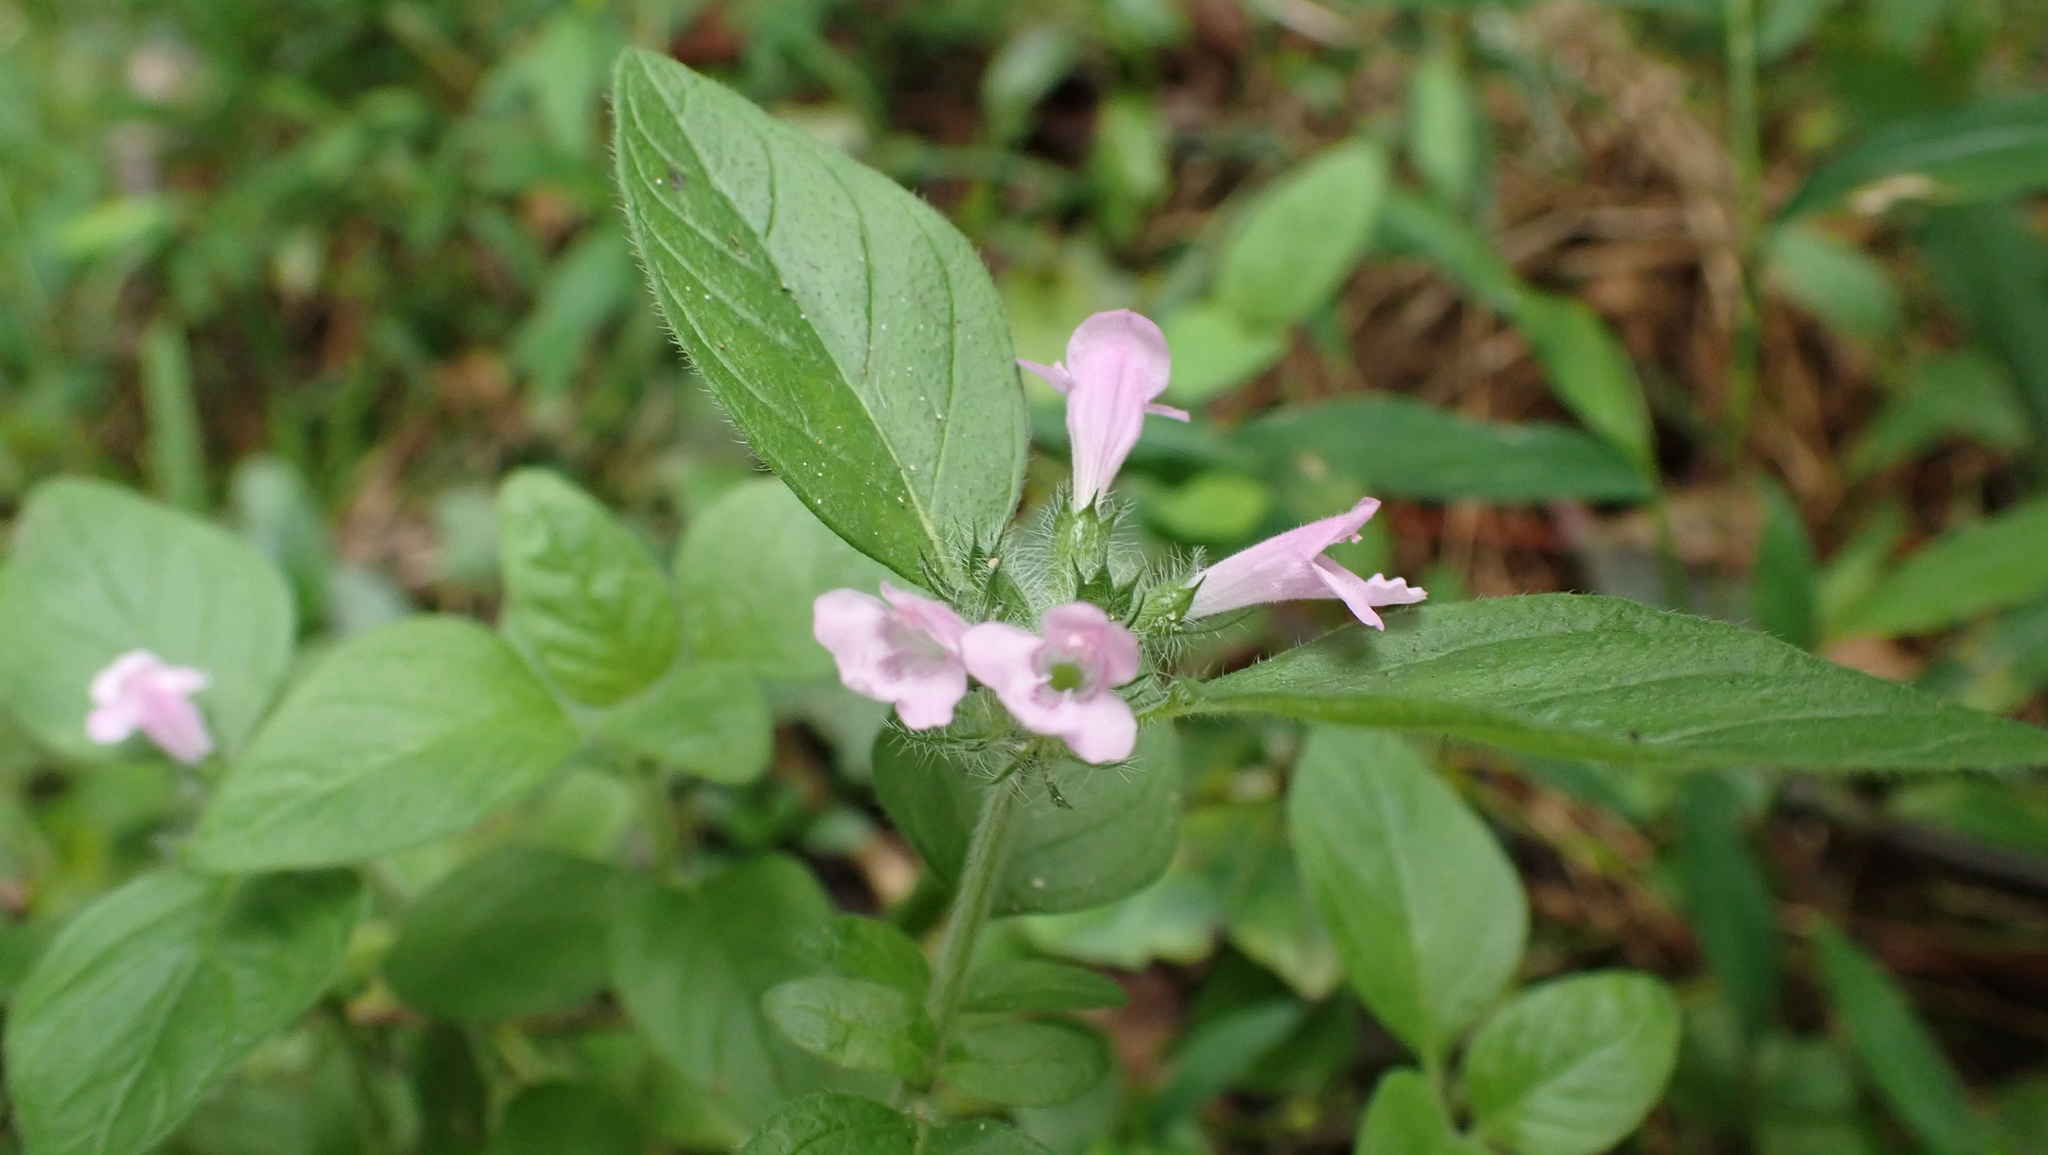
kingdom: Plantae
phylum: Tracheophyta
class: Magnoliopsida
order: Lamiales
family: Lamiaceae
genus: Clinopodium
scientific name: Clinopodium vulgare
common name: Wild basil
